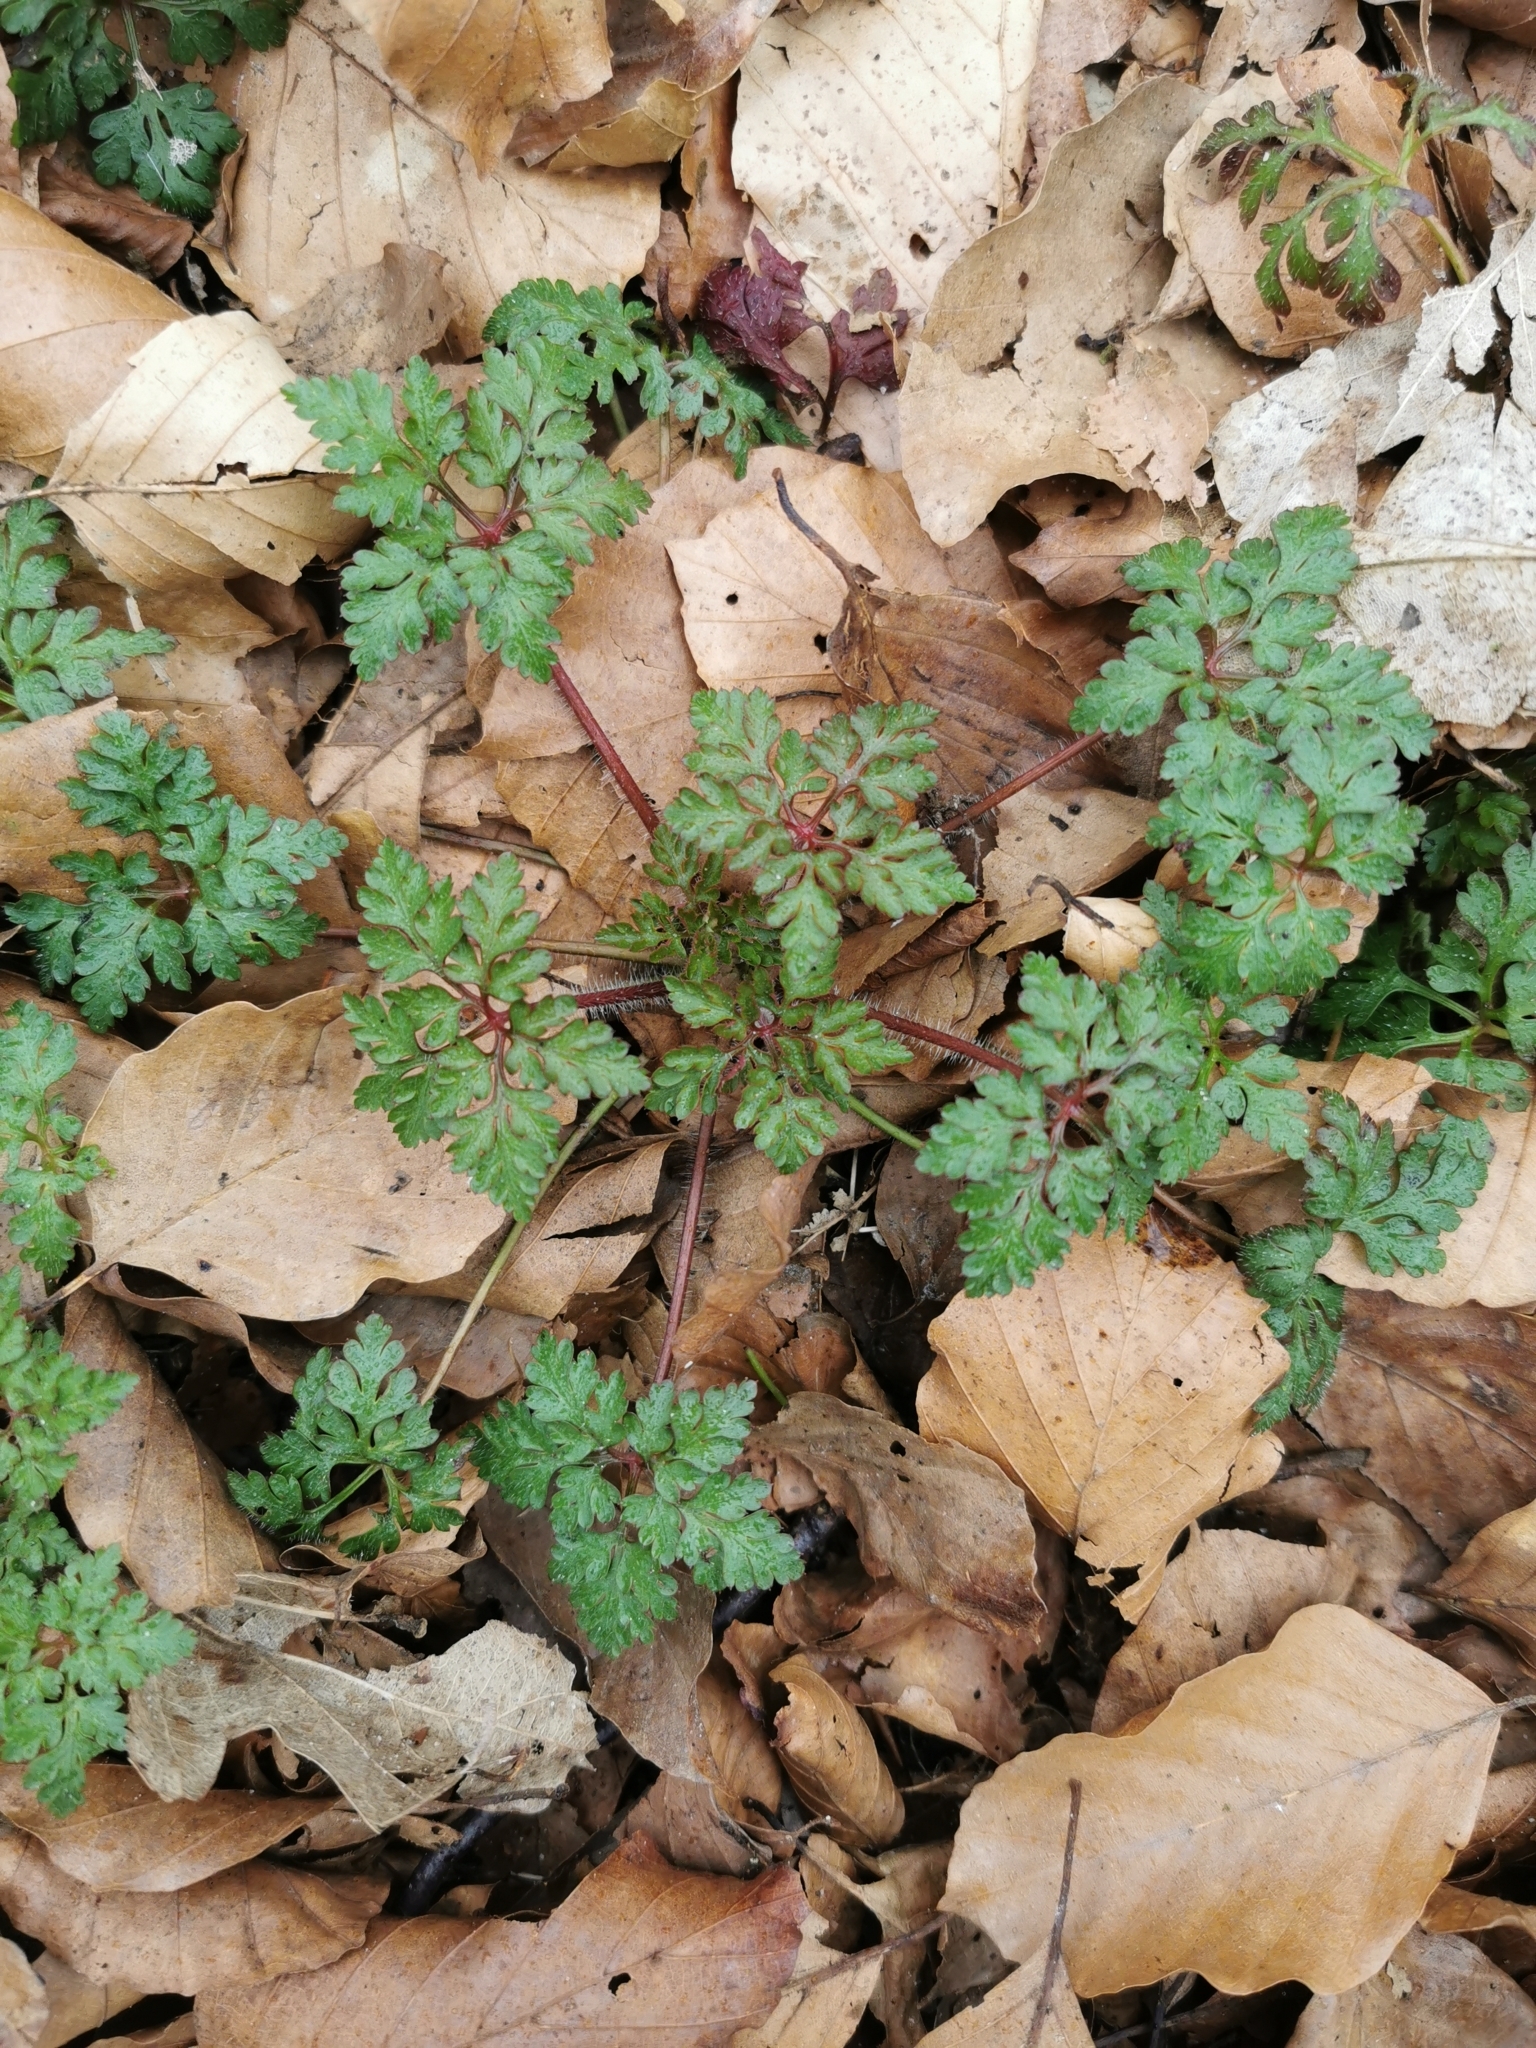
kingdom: Plantae
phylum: Tracheophyta
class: Magnoliopsida
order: Geraniales
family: Geraniaceae
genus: Geranium
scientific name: Geranium robertianum
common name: Herb-robert
